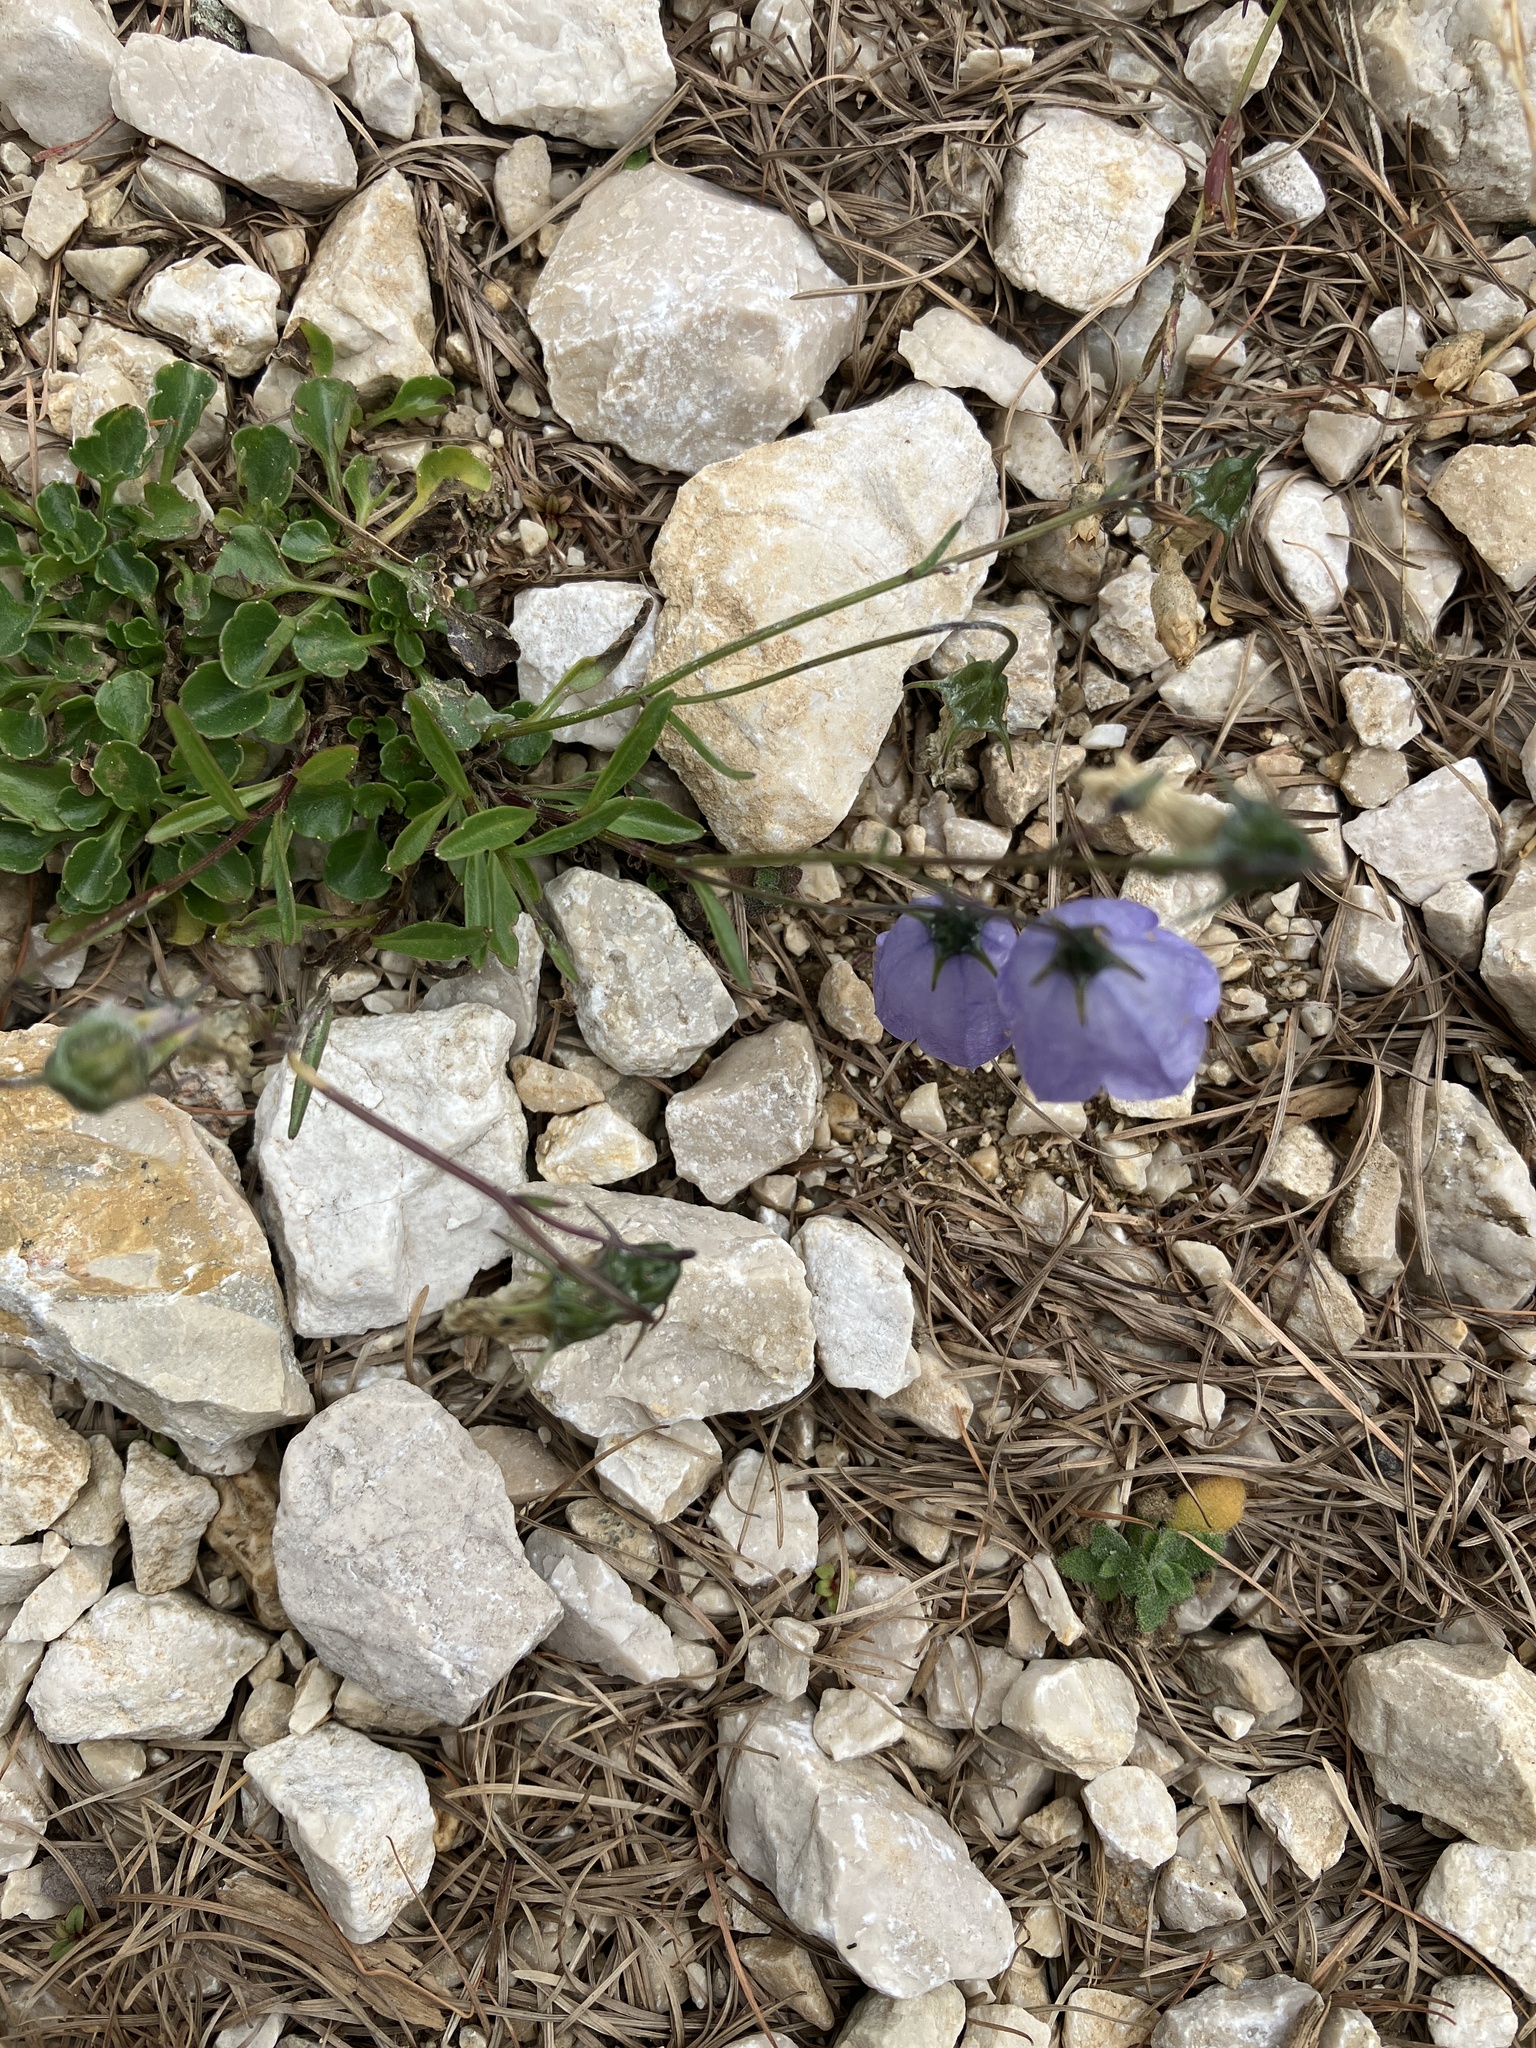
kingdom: Plantae
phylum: Tracheophyta
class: Magnoliopsida
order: Asterales
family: Campanulaceae
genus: Campanula
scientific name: Campanula cochleariifolia
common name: Fairies'-thimbles
